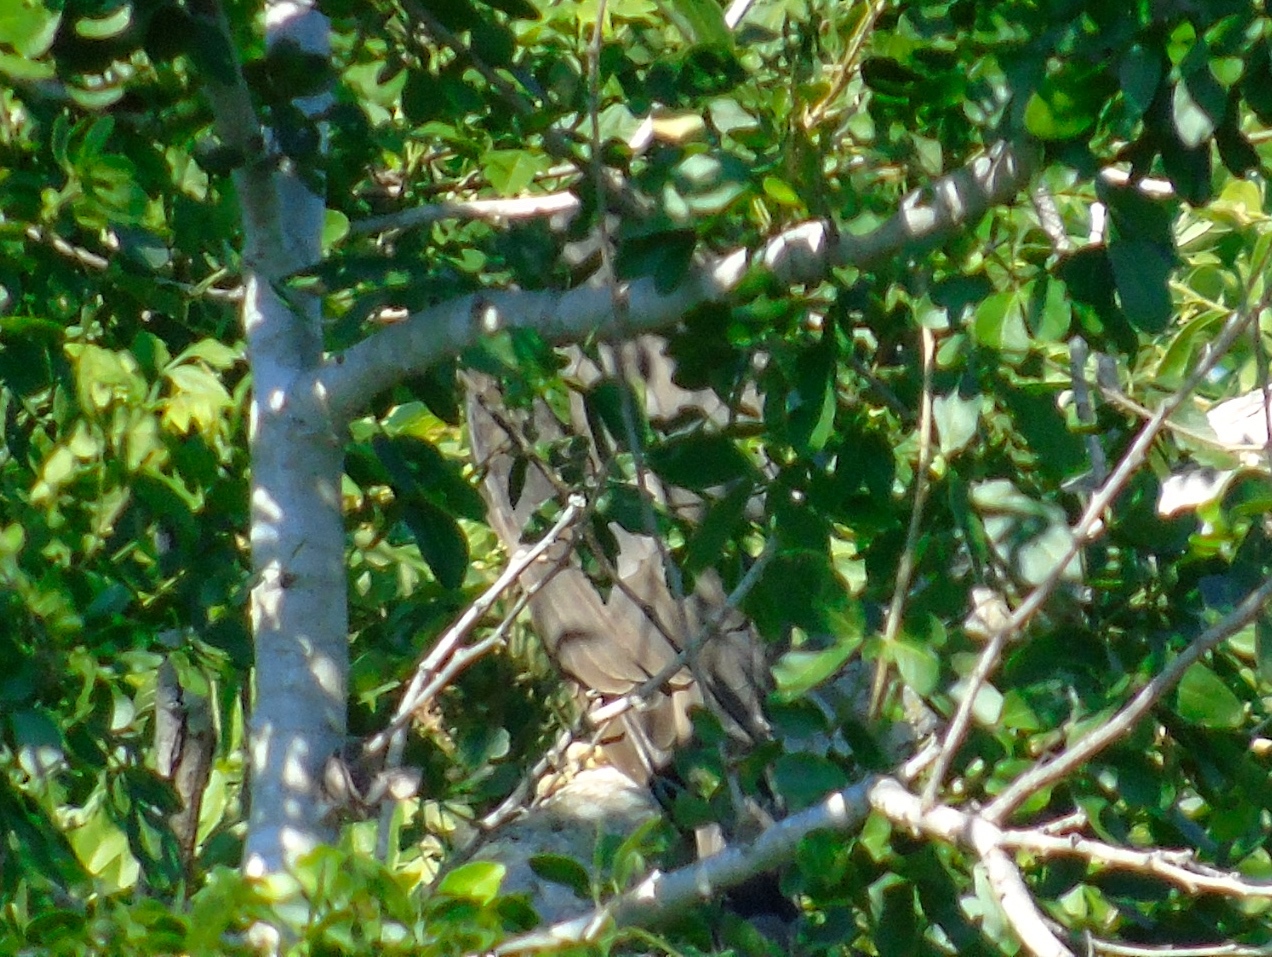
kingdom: Animalia
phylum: Chordata
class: Aves
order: Falconiformes
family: Falconidae
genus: Herpetotheres
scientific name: Herpetotheres cachinnans
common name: Laughing falcon
